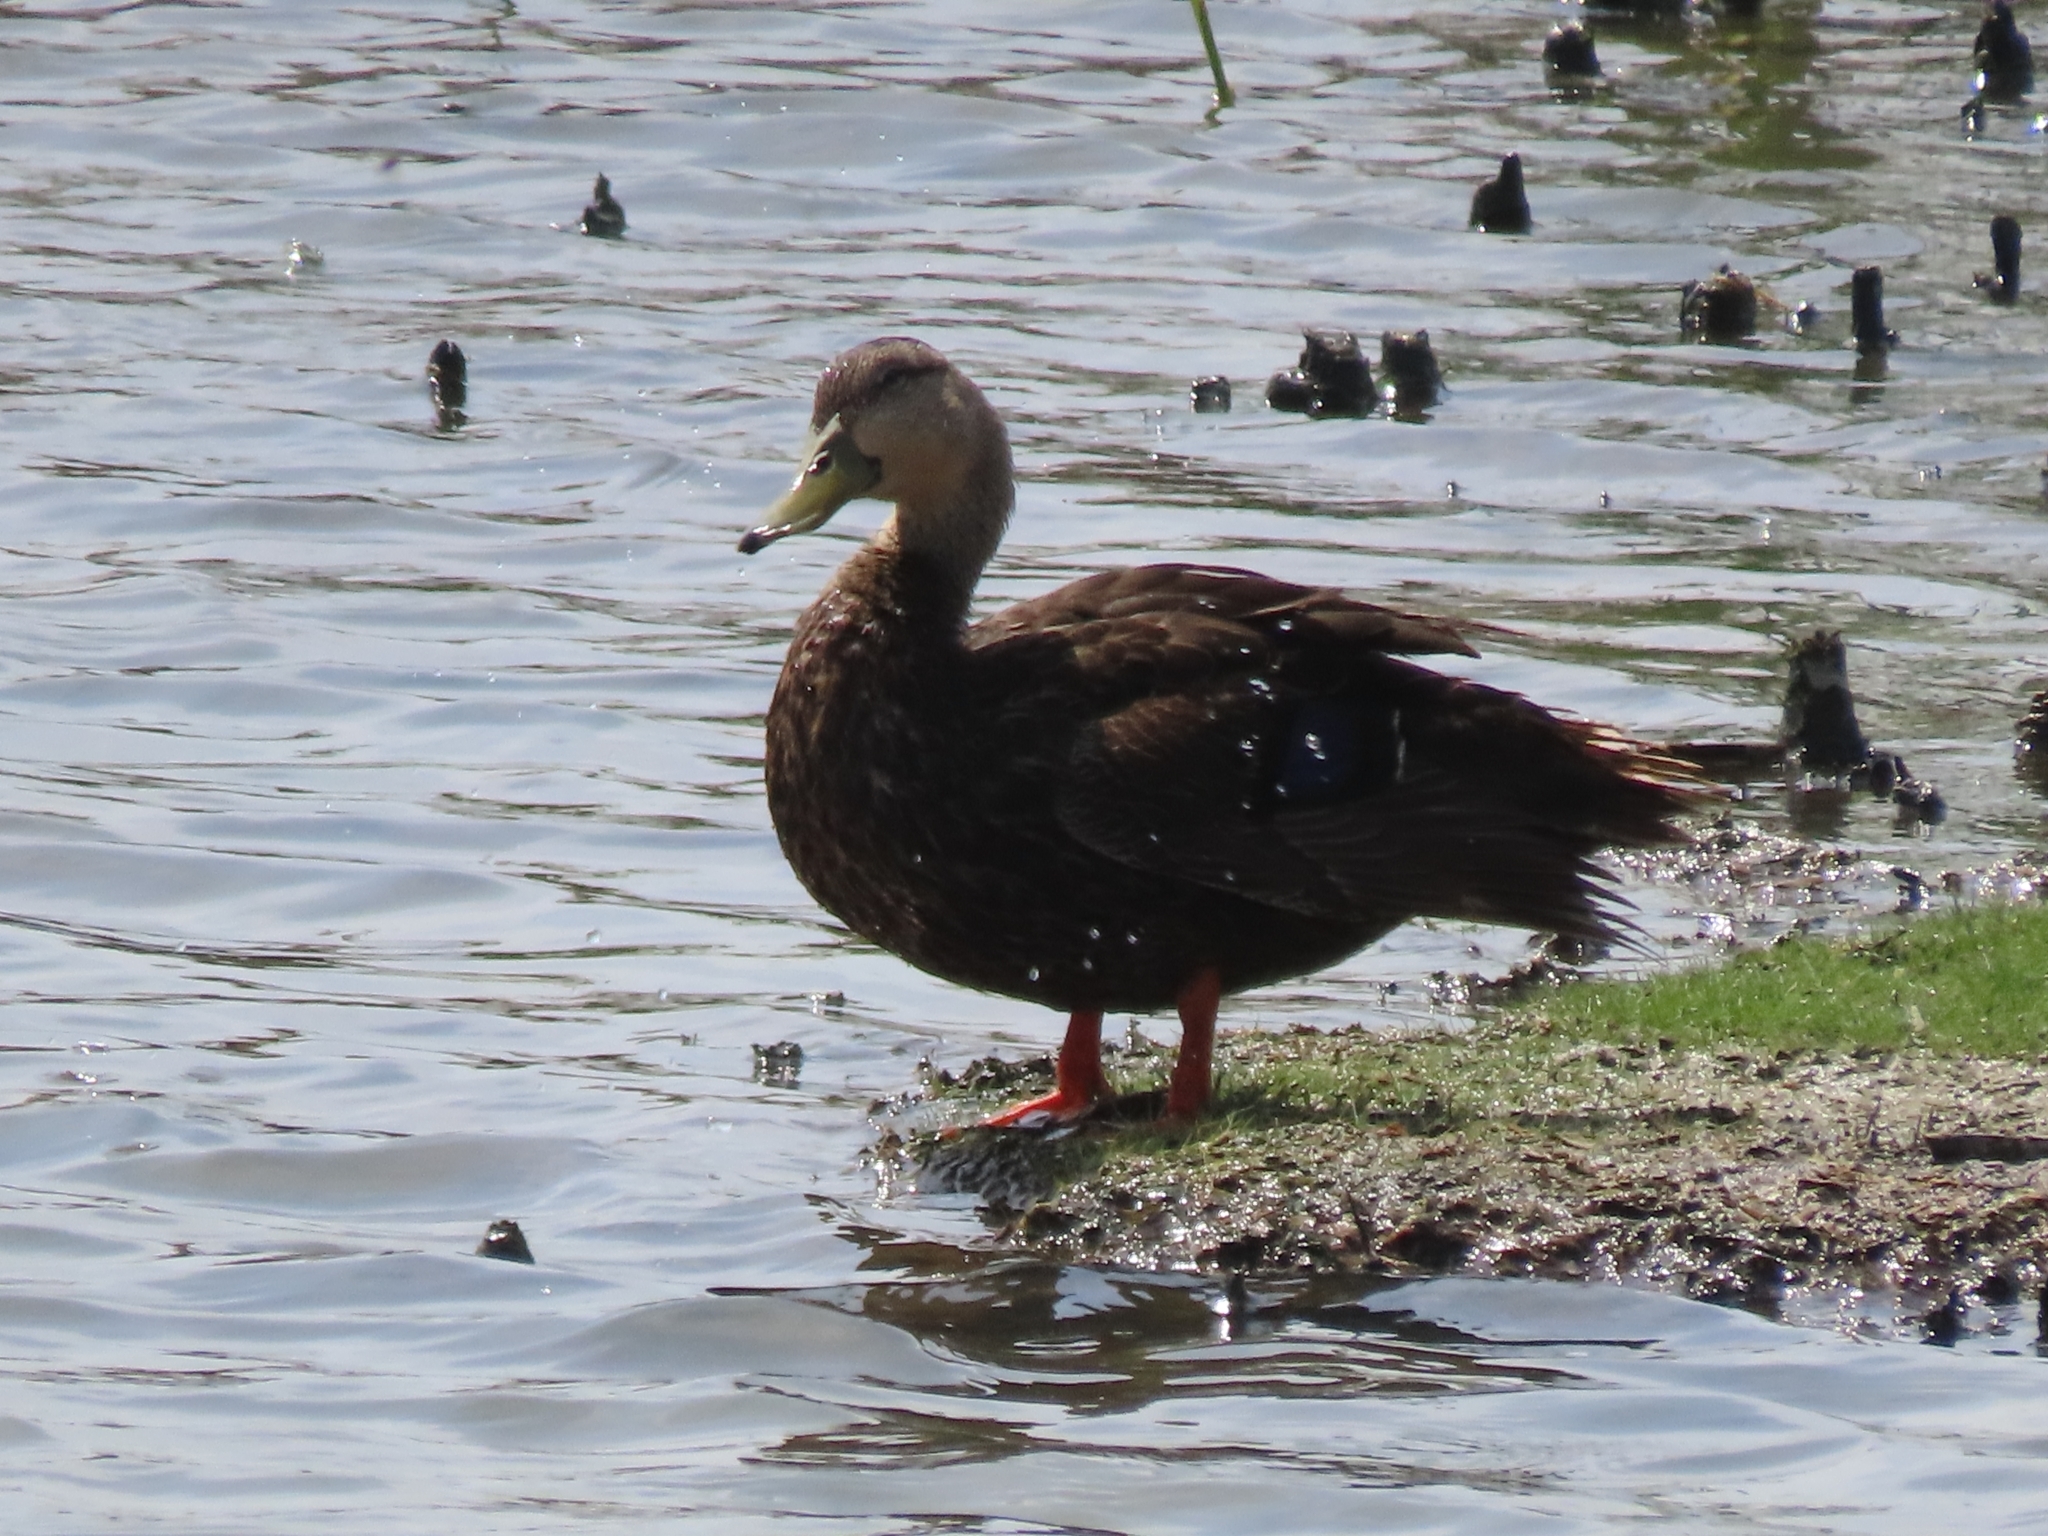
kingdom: Animalia
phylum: Chordata
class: Aves
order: Anseriformes
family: Anatidae
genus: Anas
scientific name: Anas fulvigula
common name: Mottled duck
